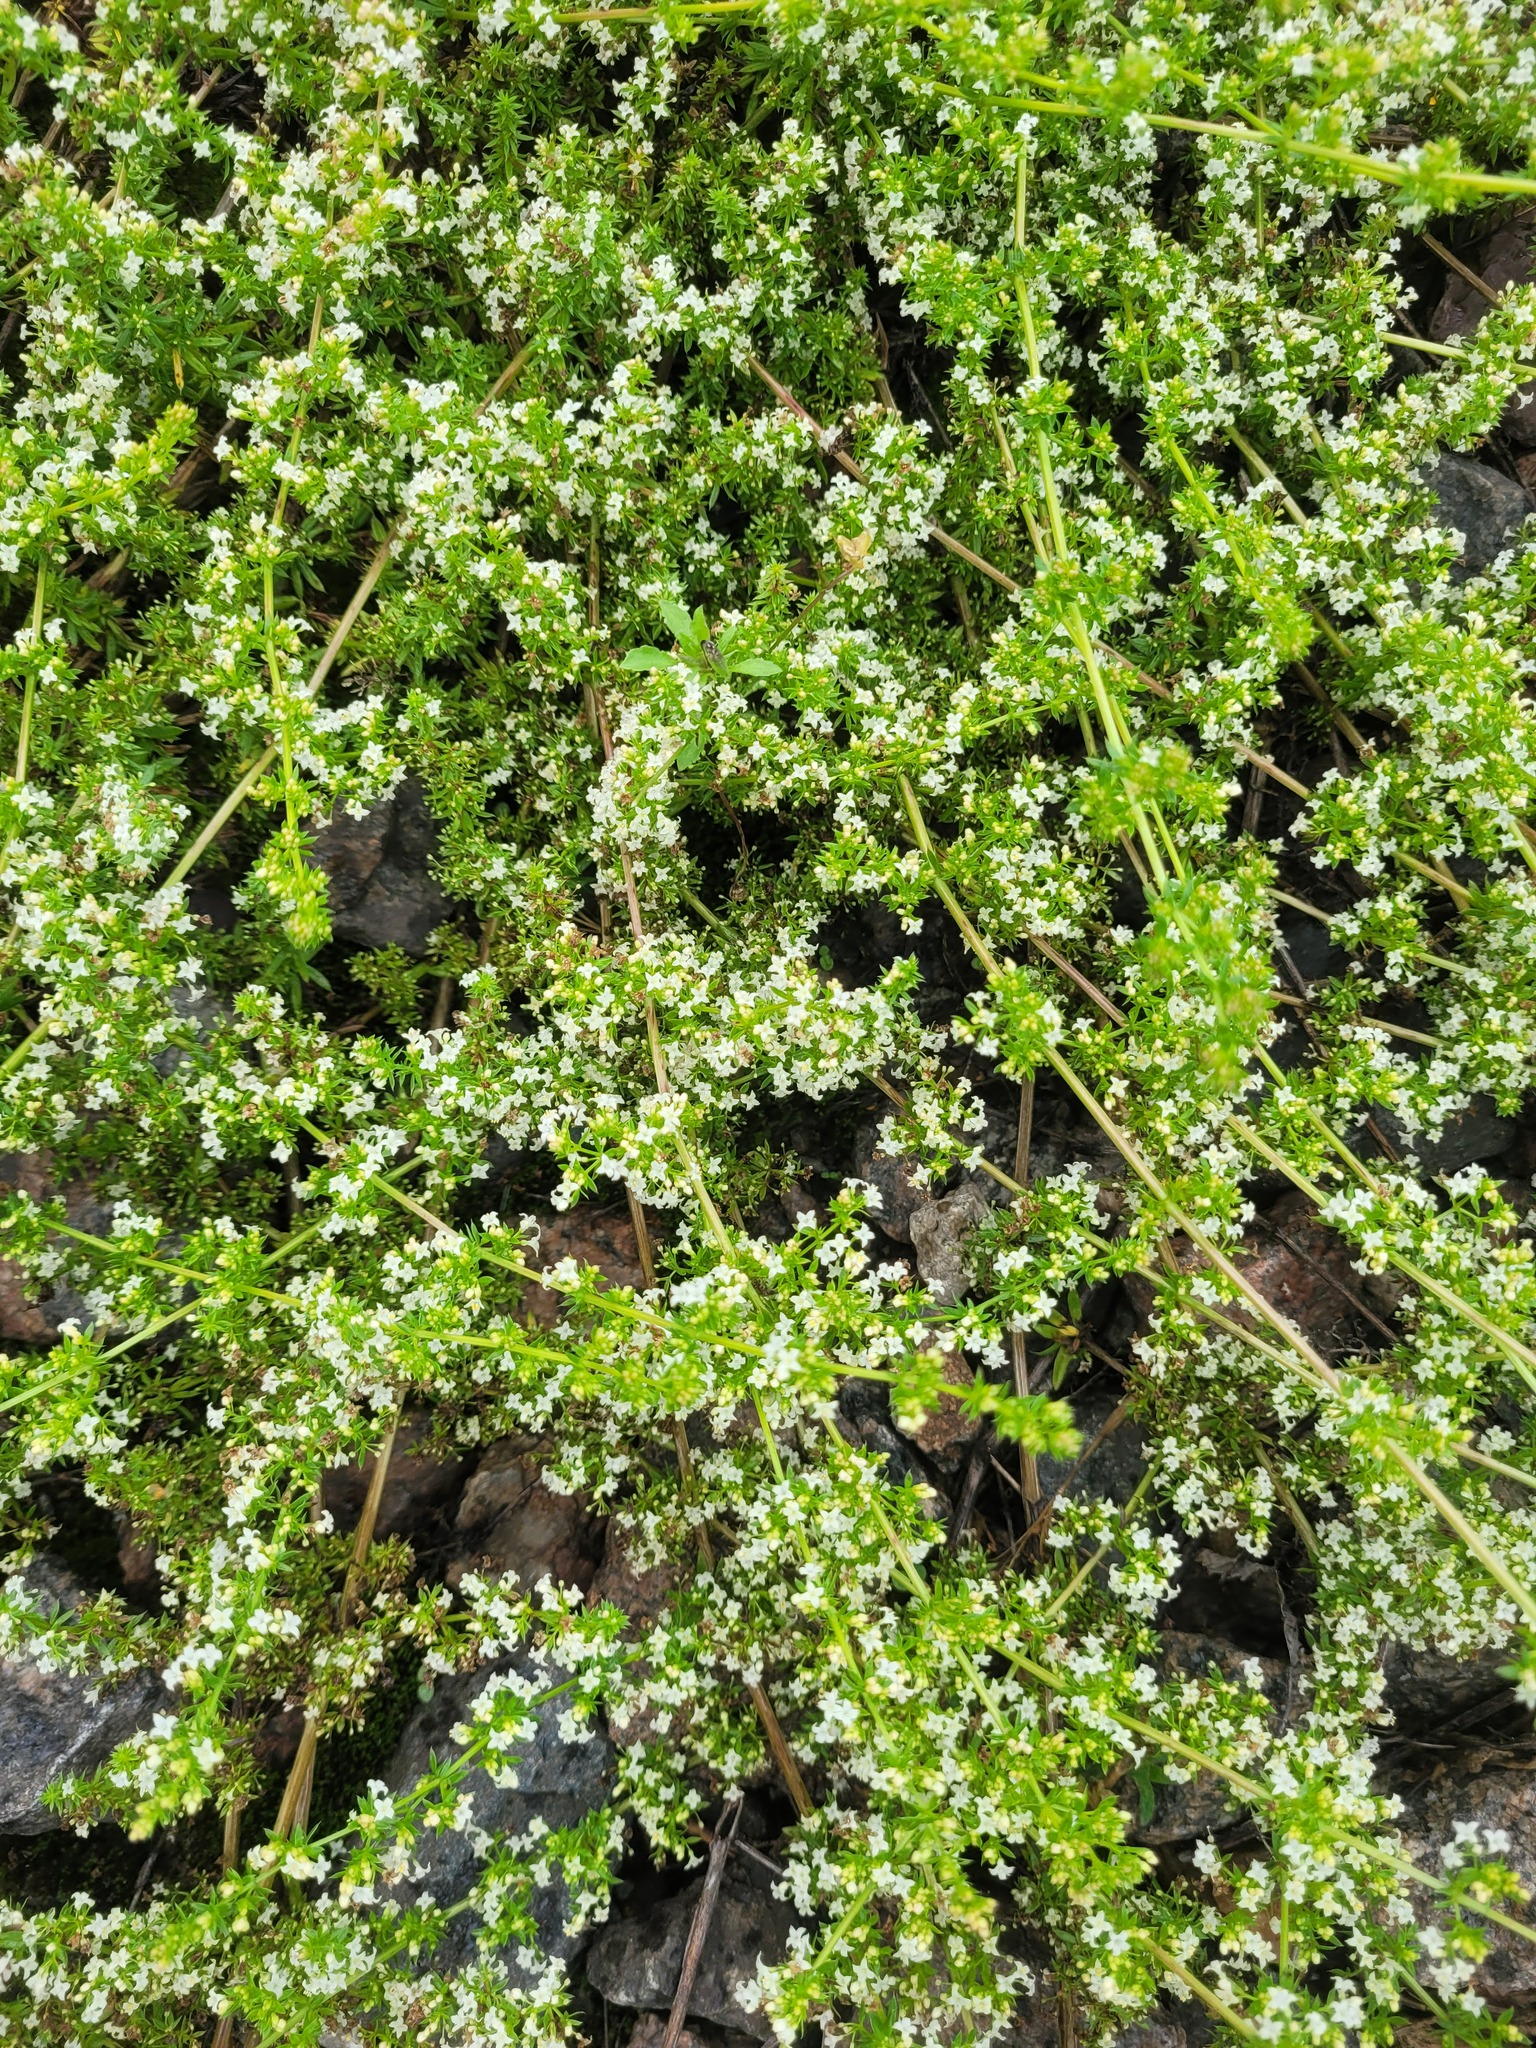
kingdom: Plantae
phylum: Tracheophyta
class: Magnoliopsida
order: Gentianales
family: Rubiaceae
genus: Galium
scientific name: Galium humifusum
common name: Spreading bedstraw
